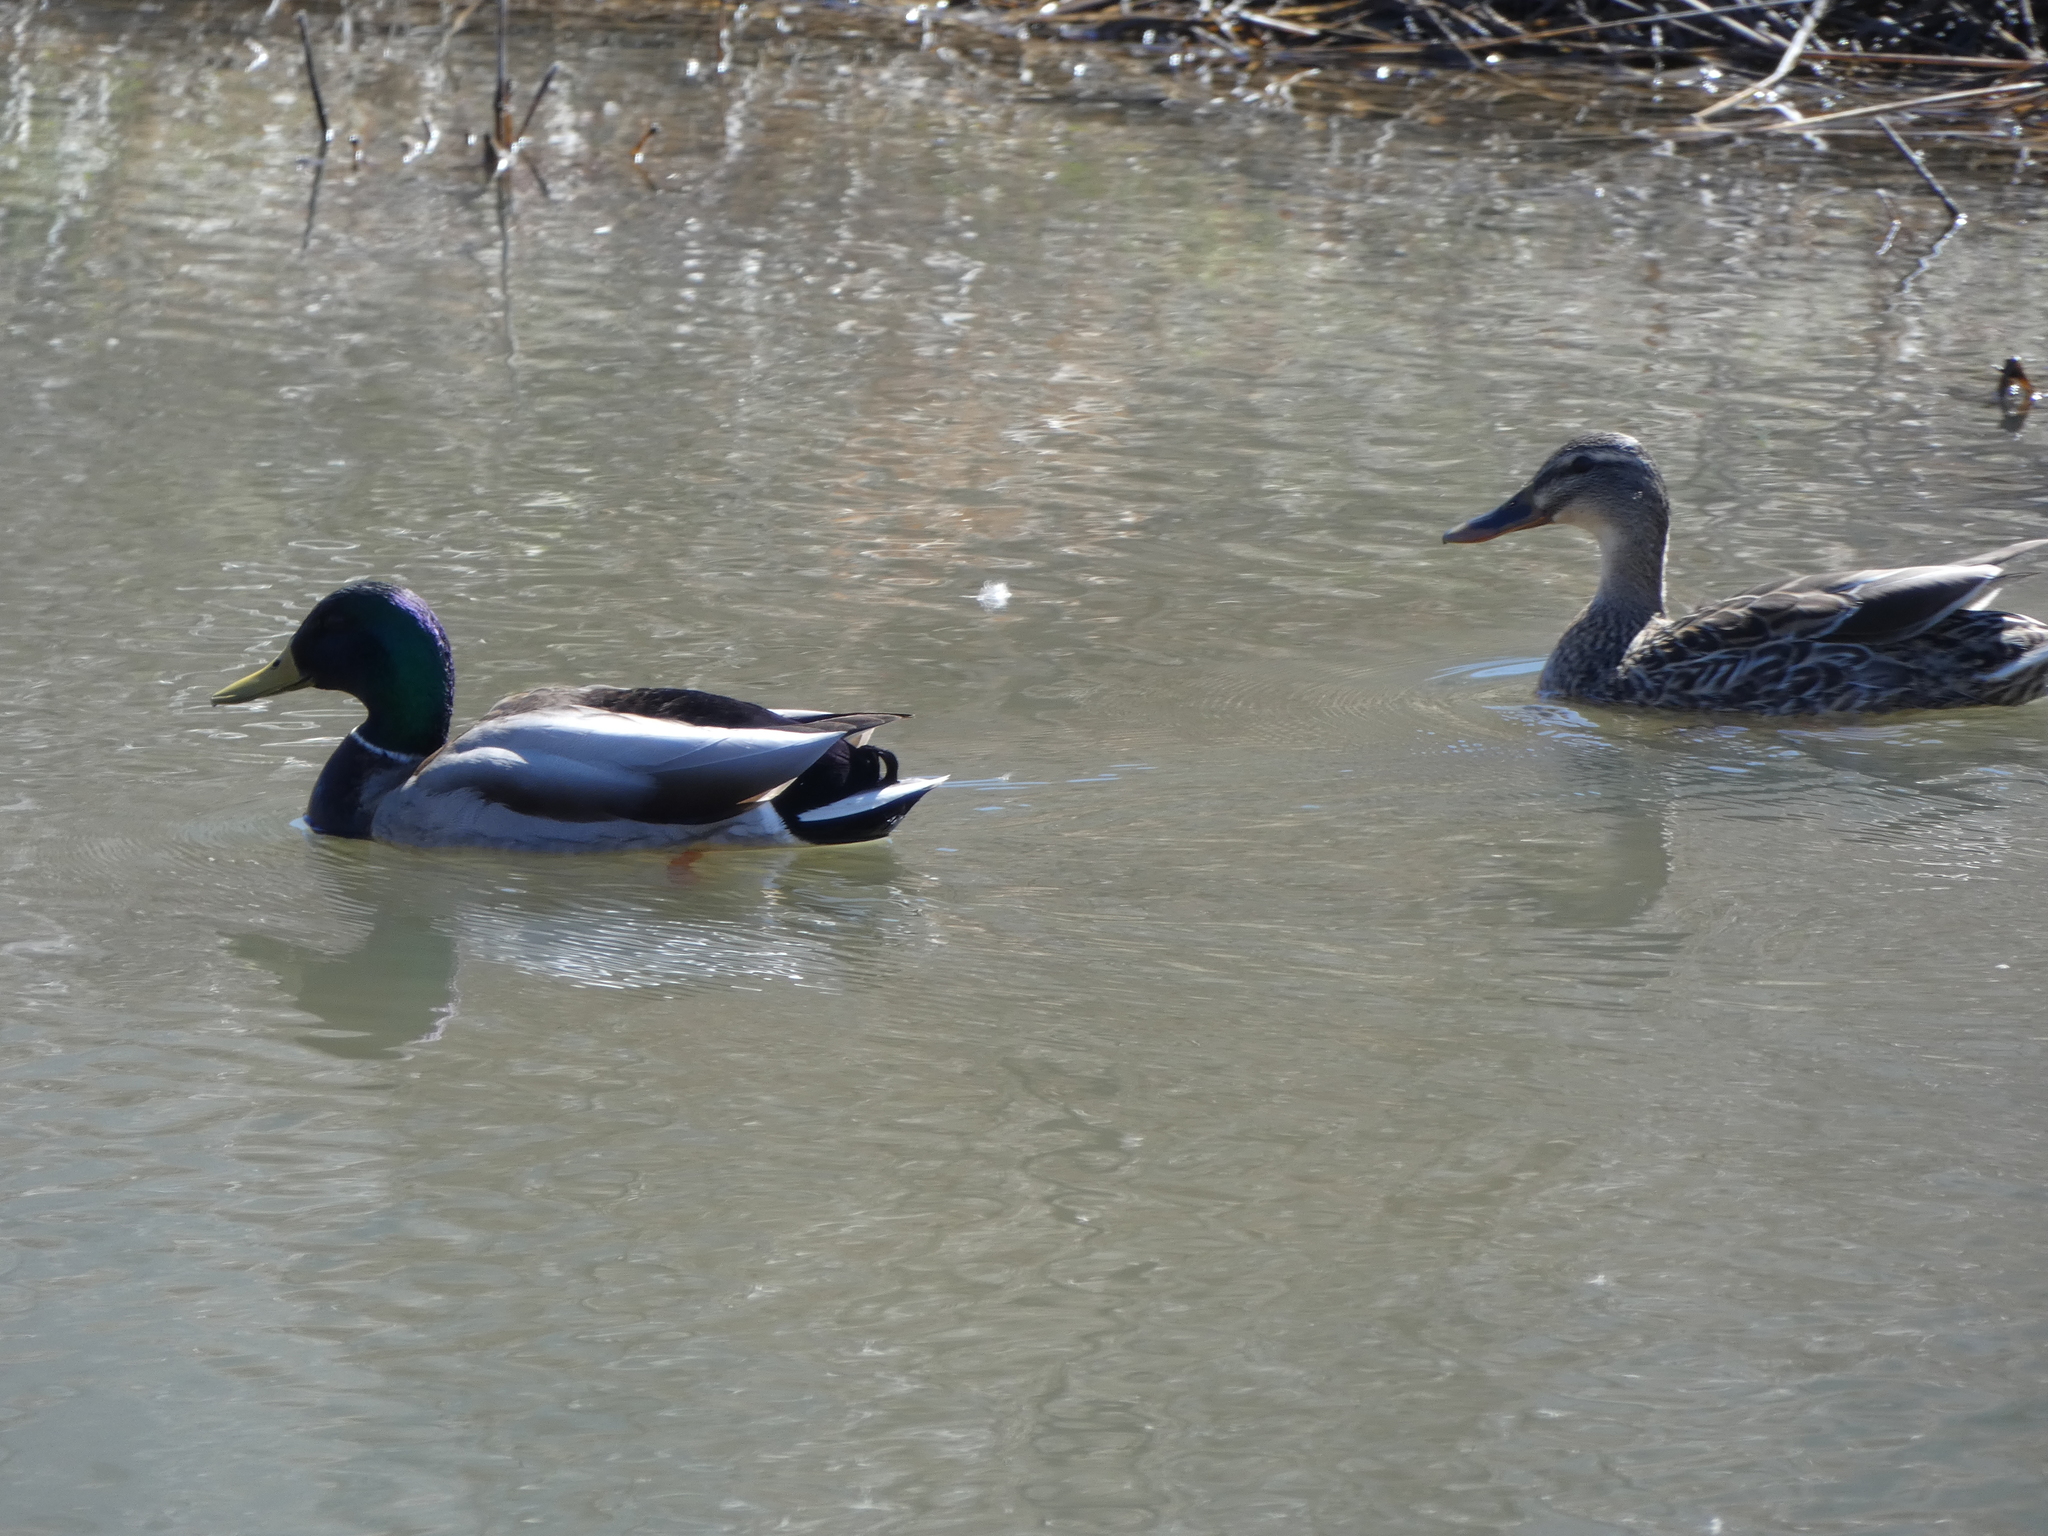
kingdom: Animalia
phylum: Chordata
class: Aves
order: Anseriformes
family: Anatidae
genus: Anas
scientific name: Anas platyrhynchos
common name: Mallard
